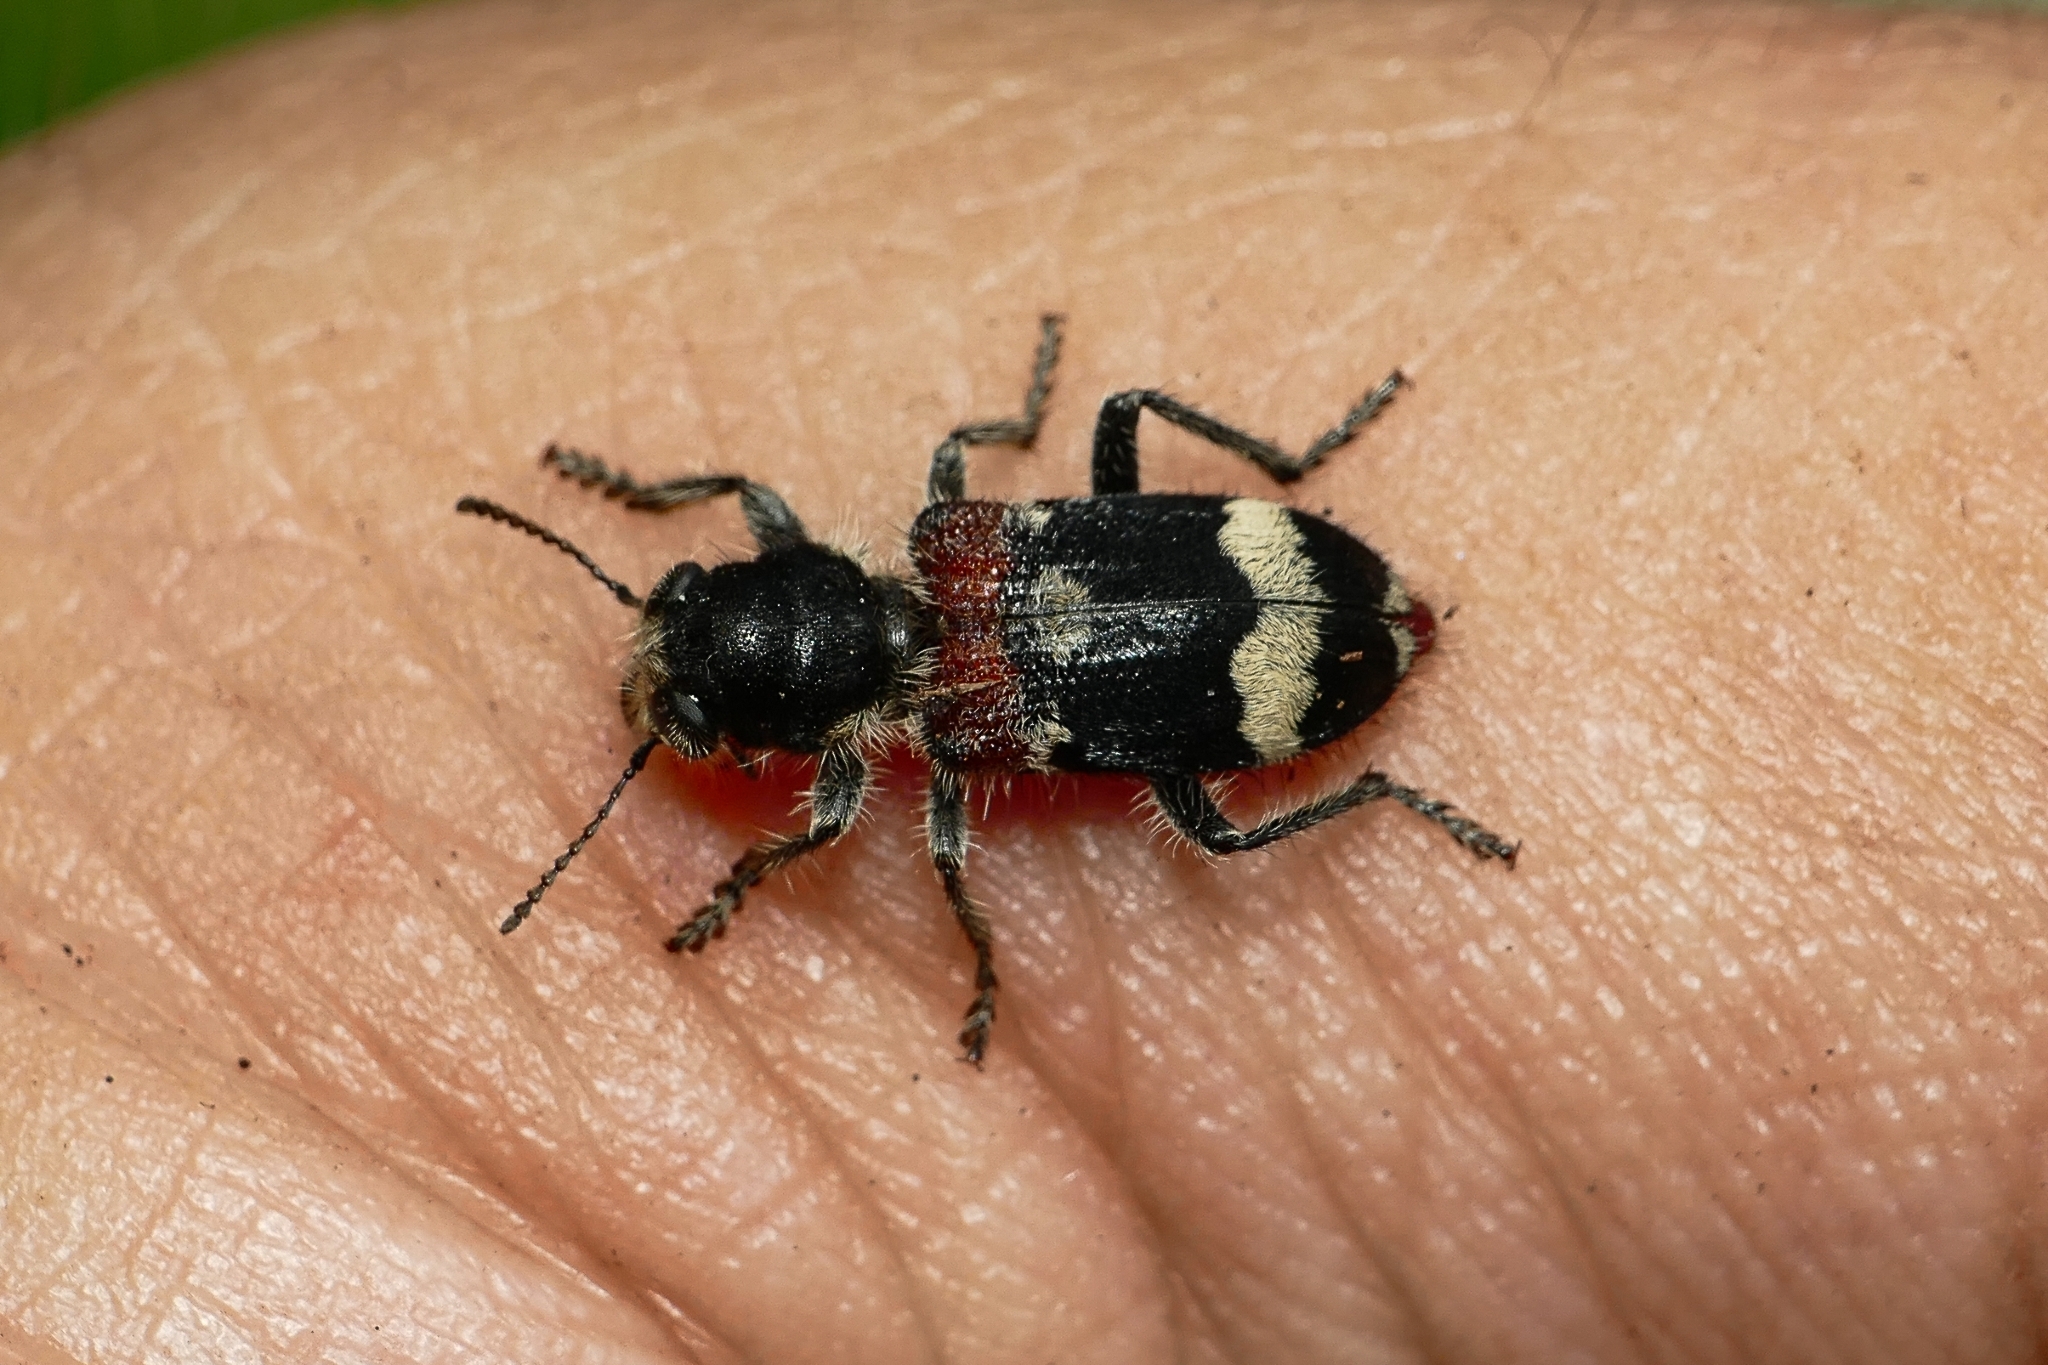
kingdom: Animalia
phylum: Arthropoda
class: Insecta
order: Coleoptera
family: Cleridae
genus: Clerus
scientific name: Clerus mutillarius
